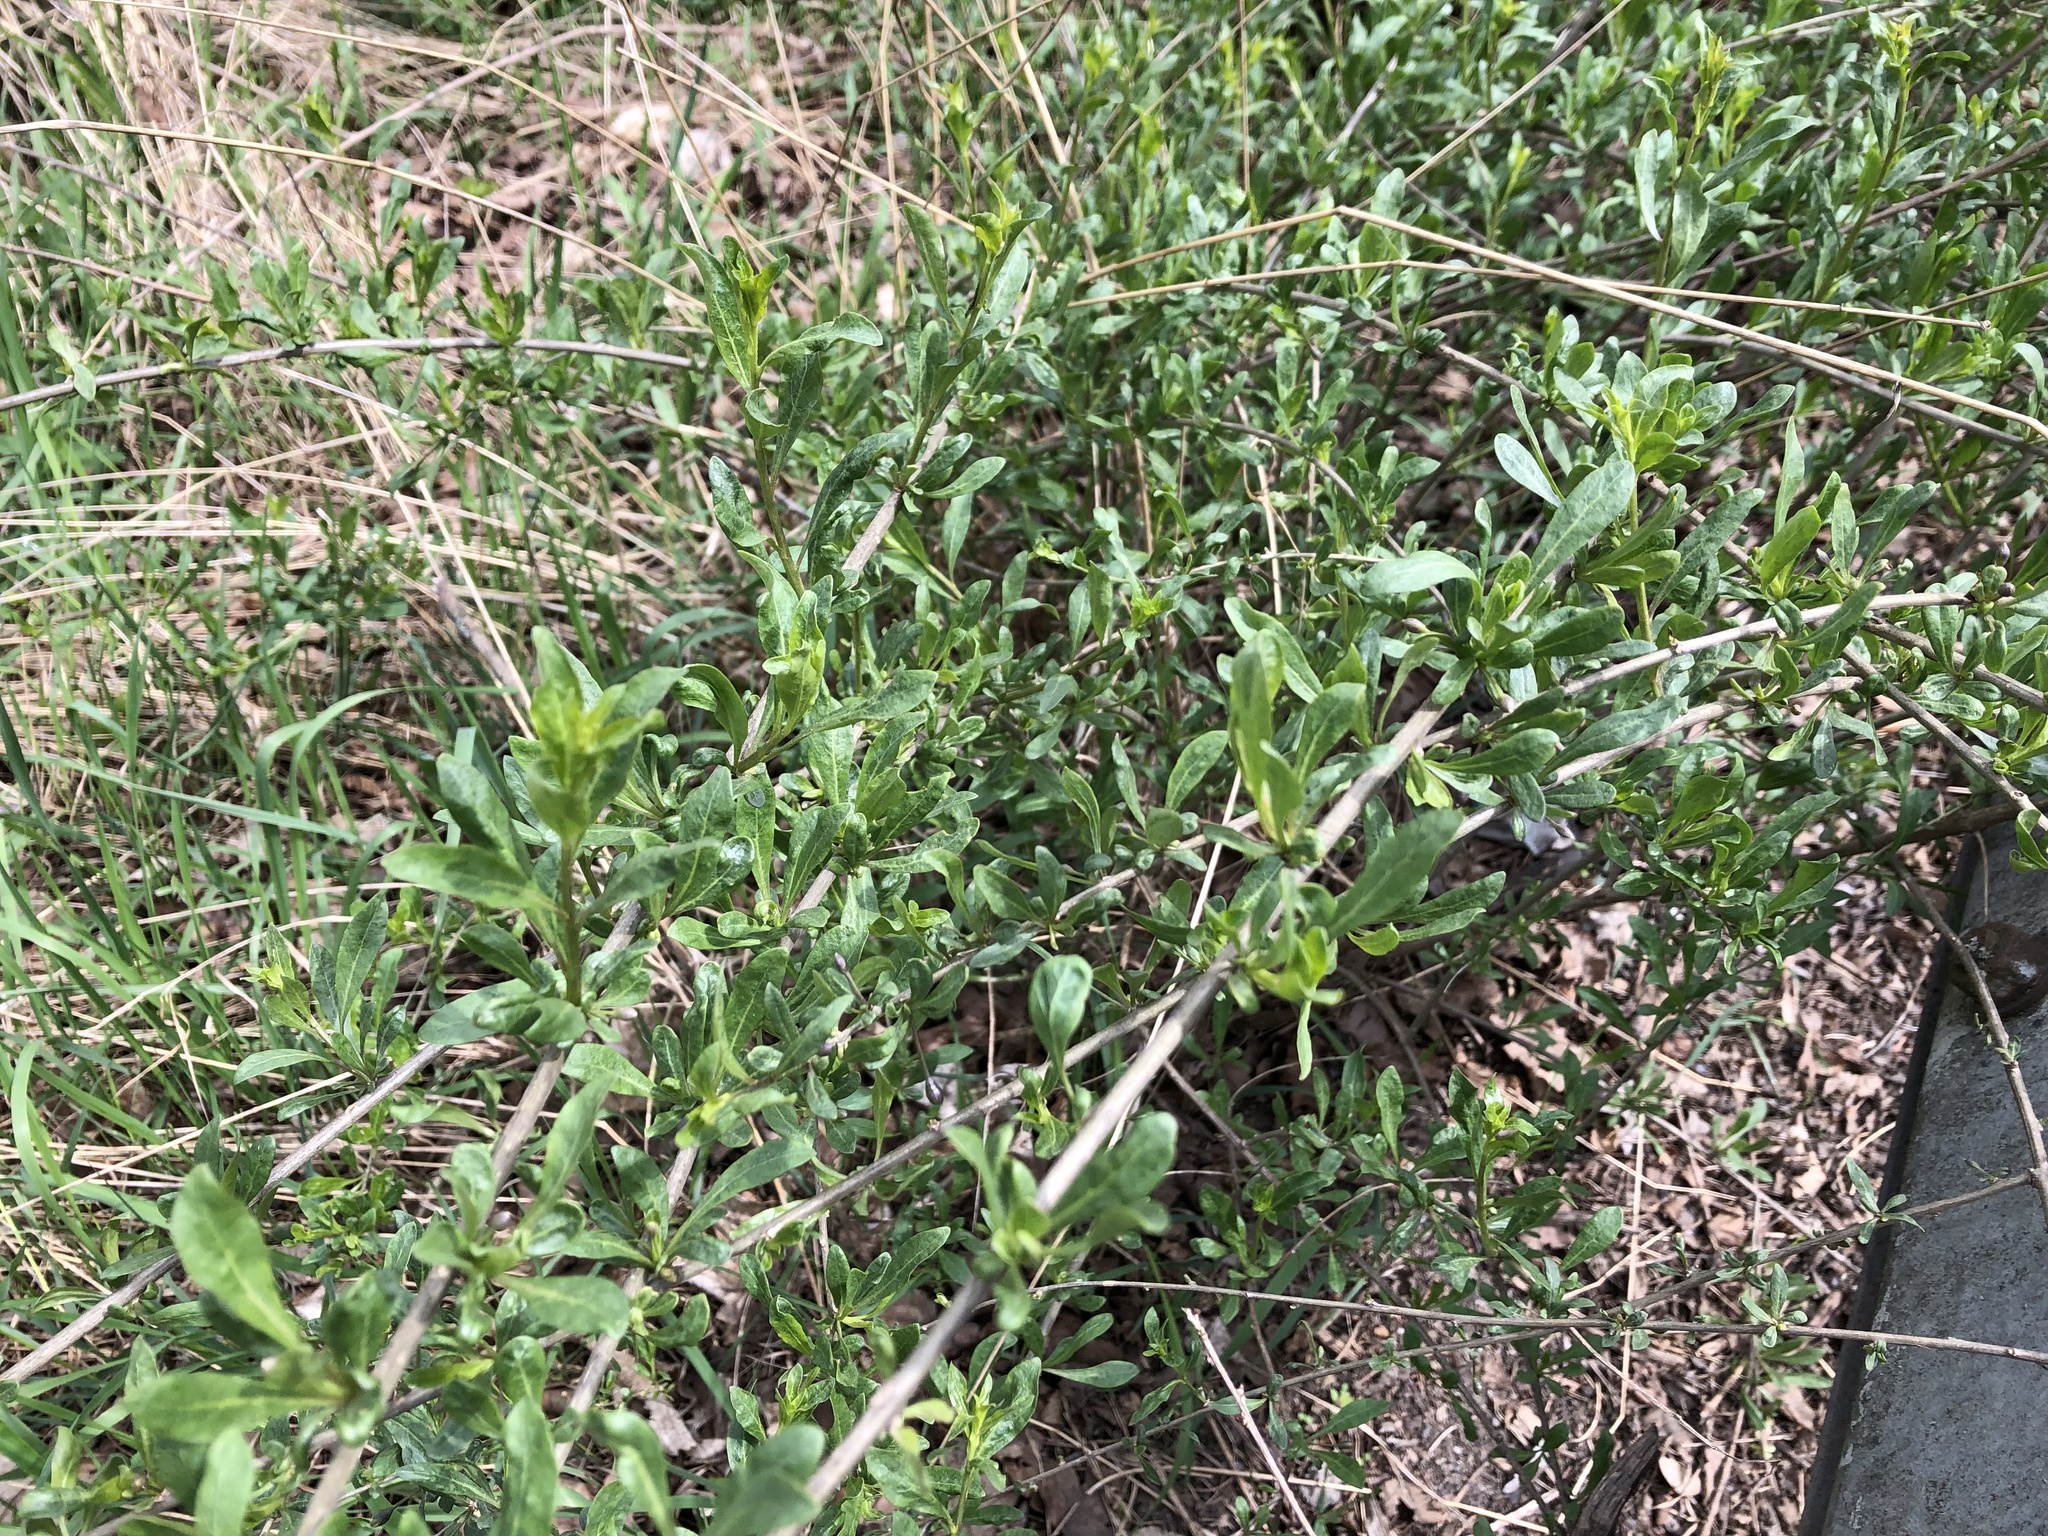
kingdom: Plantae
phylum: Tracheophyta
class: Magnoliopsida
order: Solanales
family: Solanaceae
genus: Lycium
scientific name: Lycium barbarum
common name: Duke of argyll's teaplant
